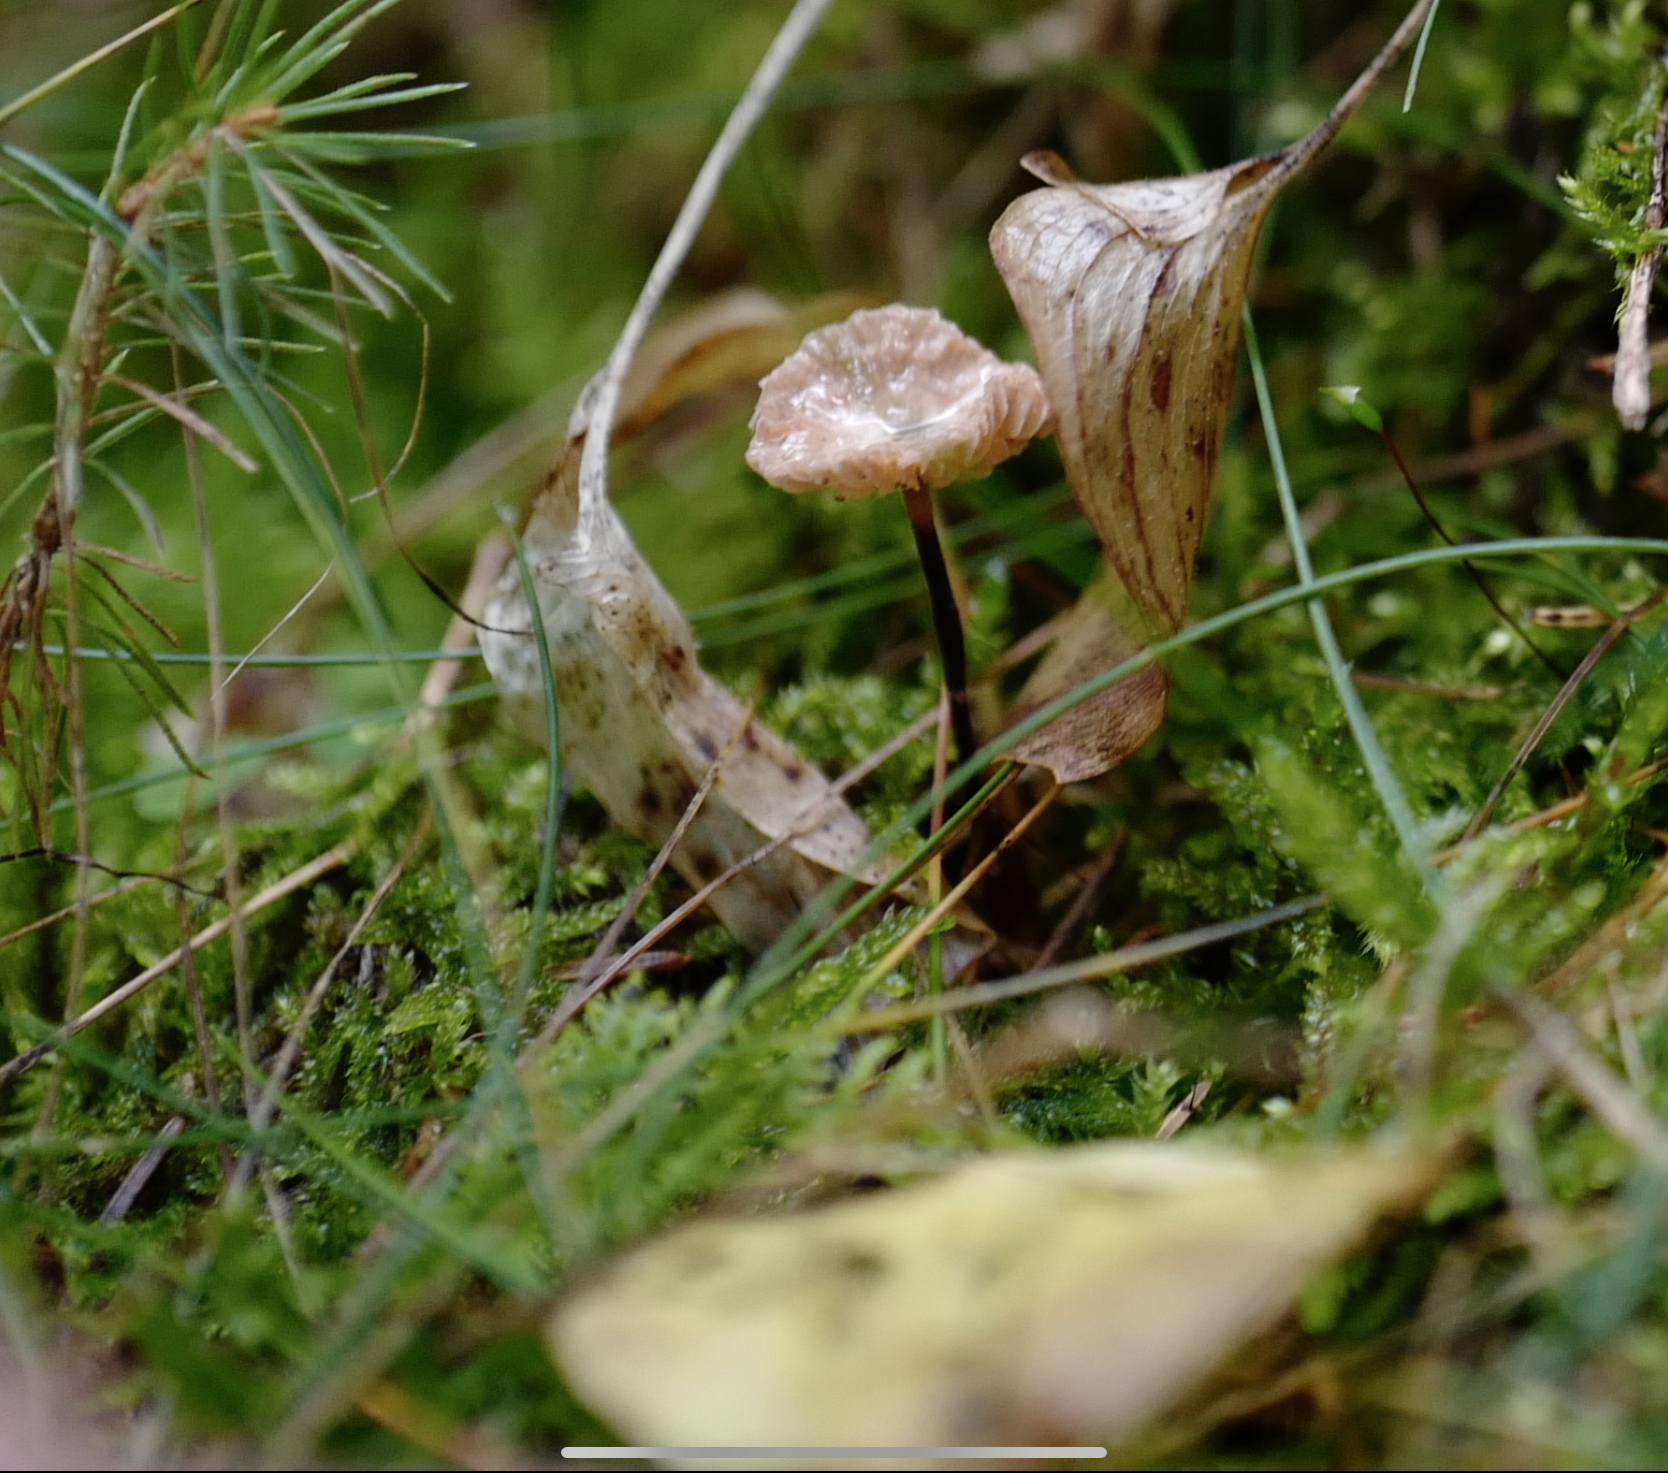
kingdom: Fungi
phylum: Basidiomycota
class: Agaricomycetes
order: Agaricales
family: Omphalotaceae
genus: Paragymnopus
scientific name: Paragymnopus perforans
